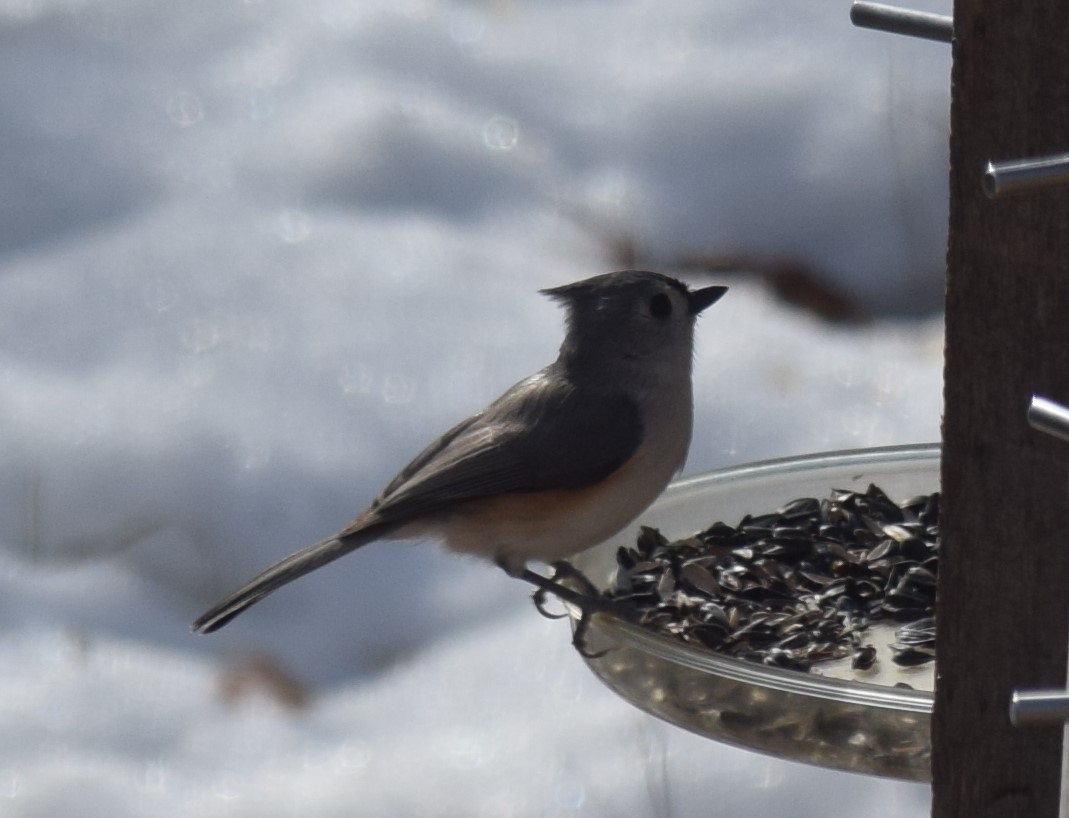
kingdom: Animalia
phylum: Chordata
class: Aves
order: Passeriformes
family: Paridae
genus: Baeolophus
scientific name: Baeolophus bicolor
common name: Tufted titmouse
